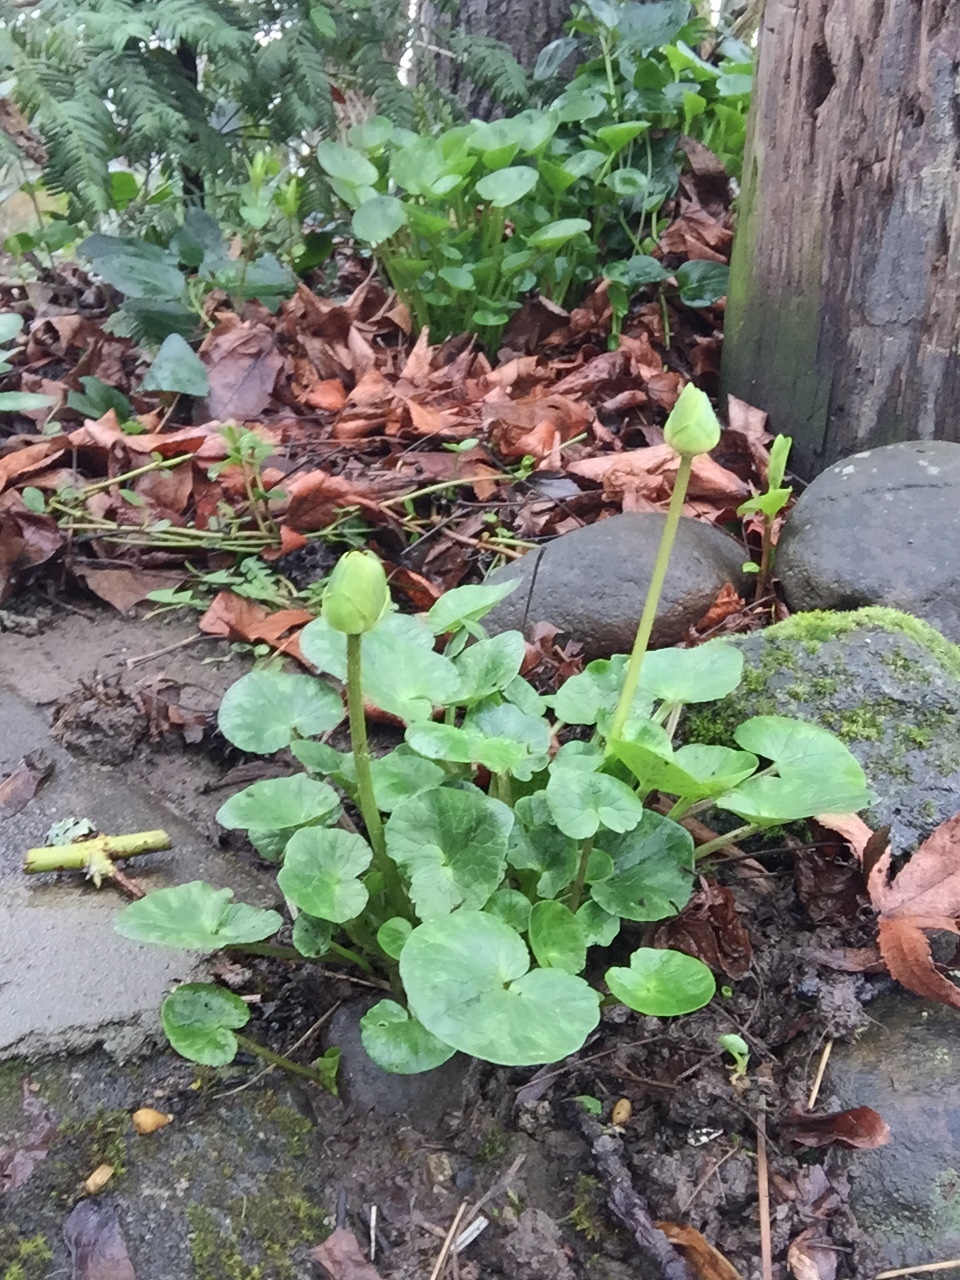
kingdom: Plantae
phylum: Tracheophyta
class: Magnoliopsida
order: Ranunculales
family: Ranunculaceae
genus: Ficaria
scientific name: Ficaria verna
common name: Lesser celandine
